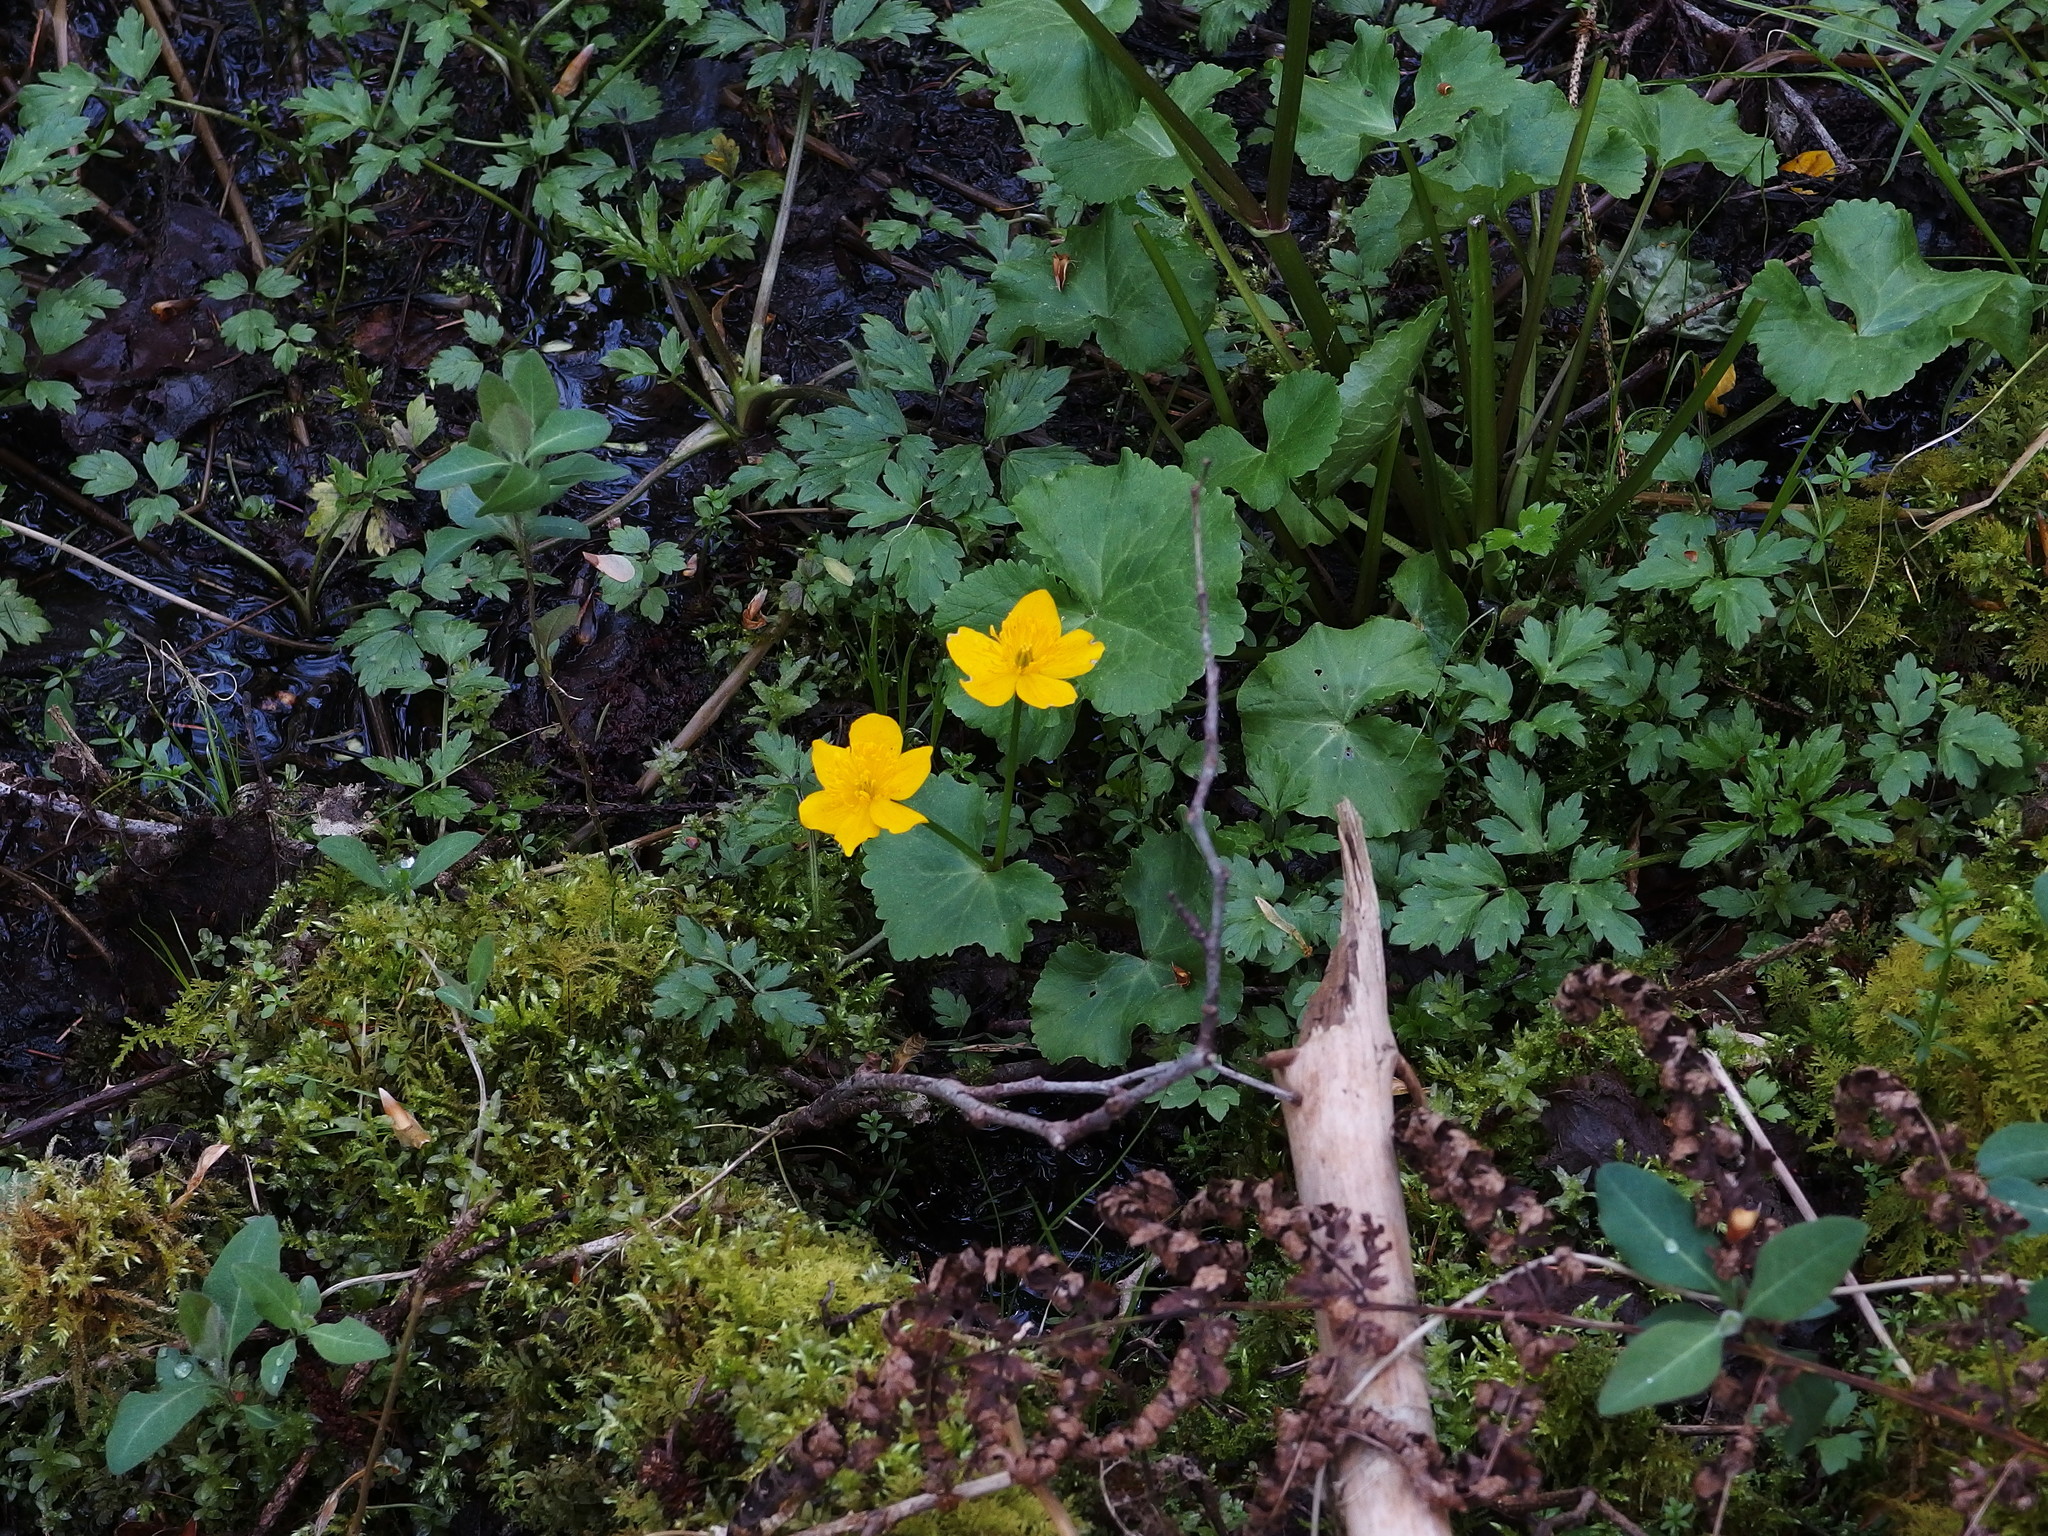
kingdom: Plantae
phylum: Tracheophyta
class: Magnoliopsida
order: Ranunculales
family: Ranunculaceae
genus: Caltha
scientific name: Caltha palustris
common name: Marsh marigold
